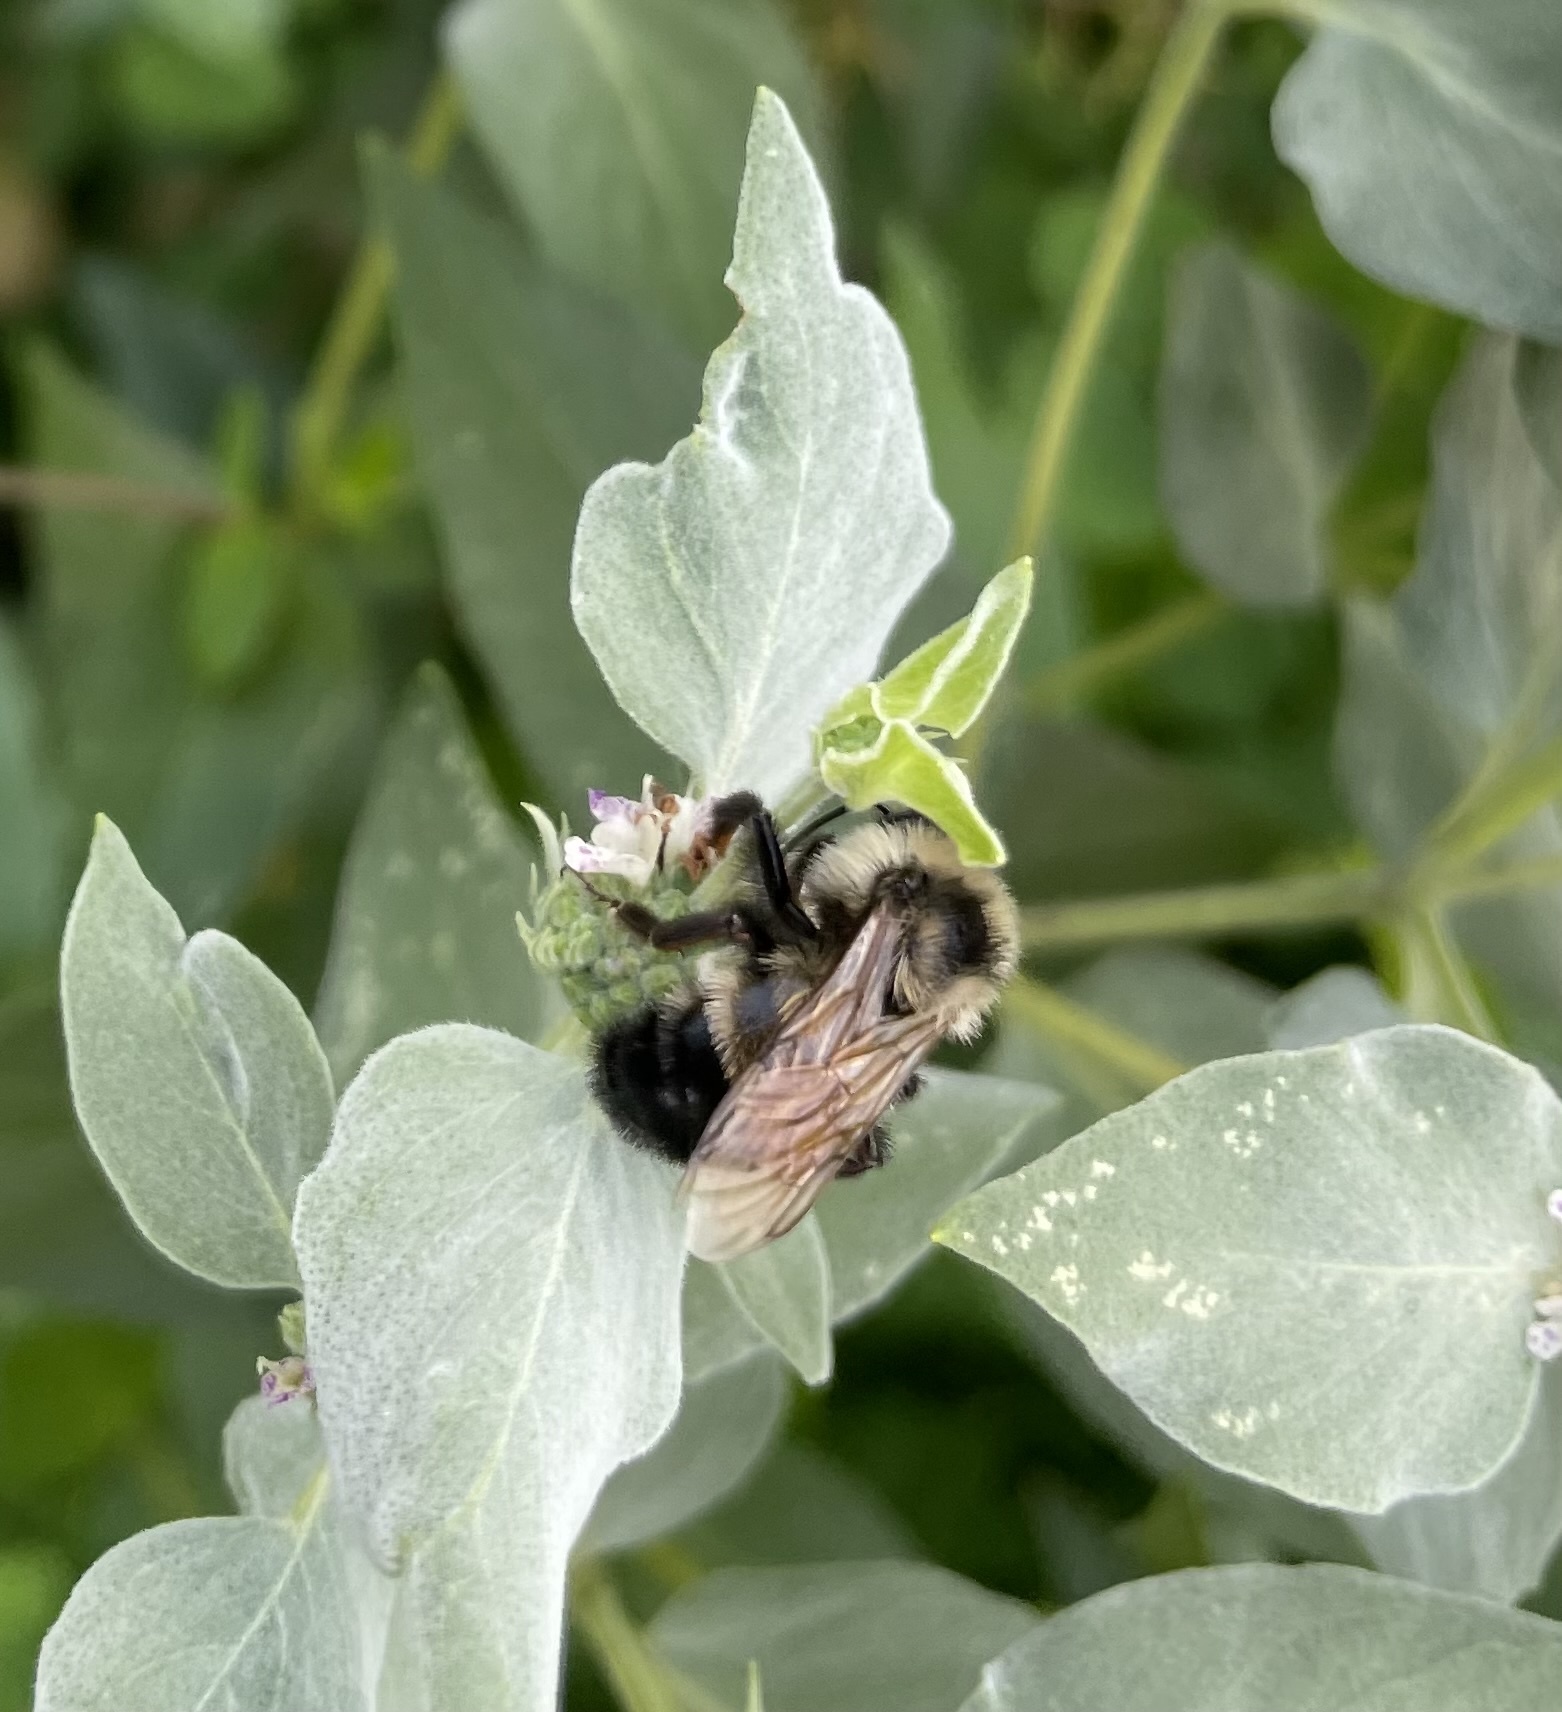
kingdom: Animalia
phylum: Arthropoda
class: Insecta
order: Hymenoptera
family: Apidae
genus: Bombus
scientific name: Bombus citrinus
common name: Lemon cuckoo bumble bee
